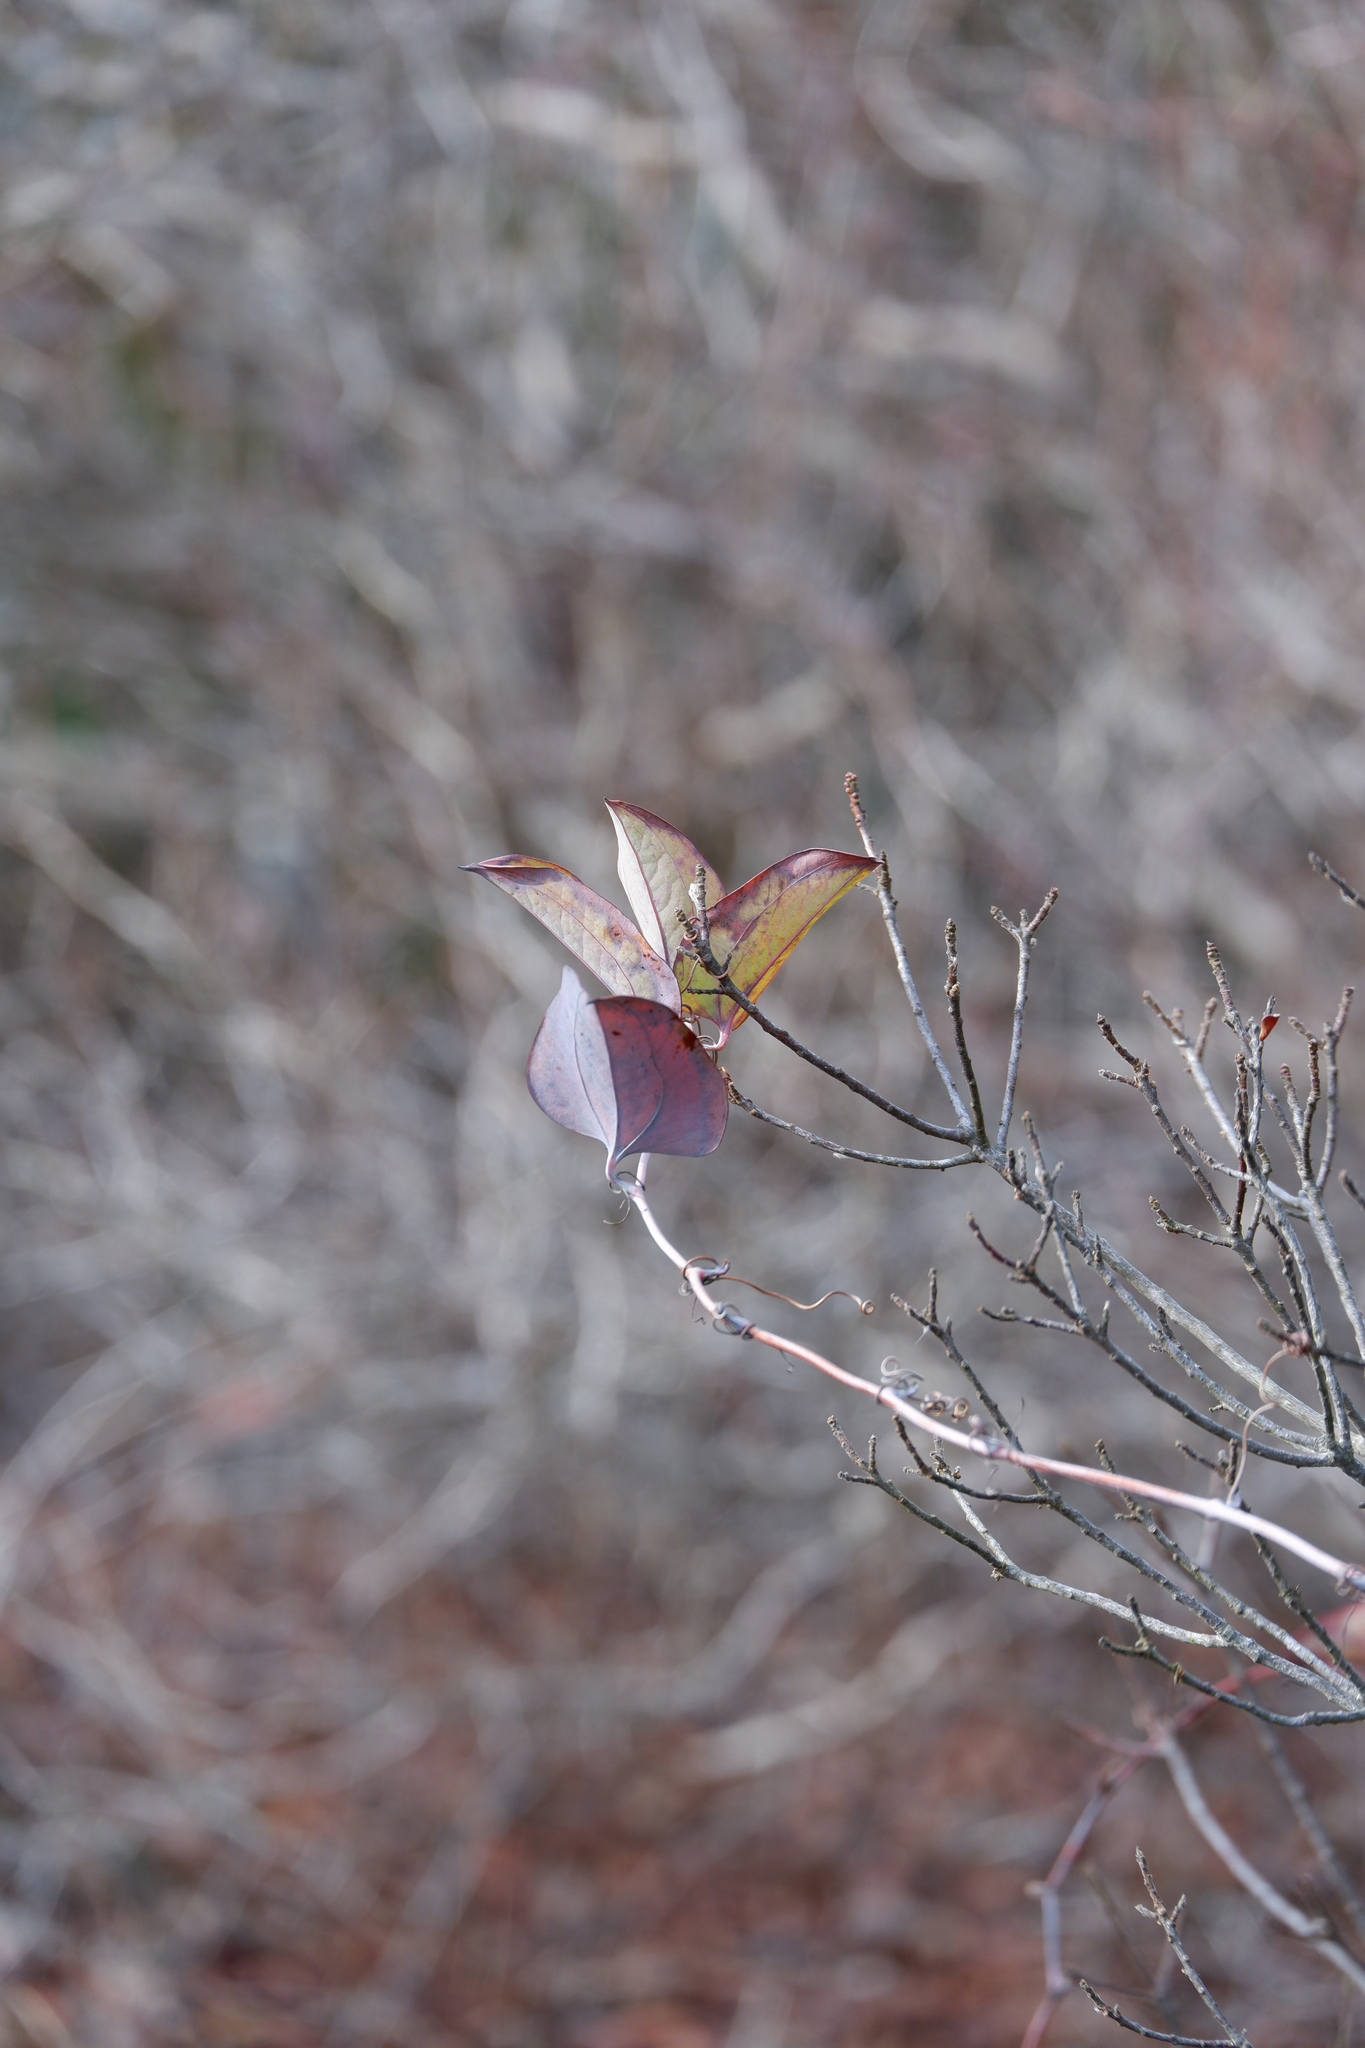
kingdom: Plantae
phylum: Tracheophyta
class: Liliopsida
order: Liliales
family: Smilacaceae
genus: Smilax
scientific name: Smilax glauca
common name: Cat greenbrier
